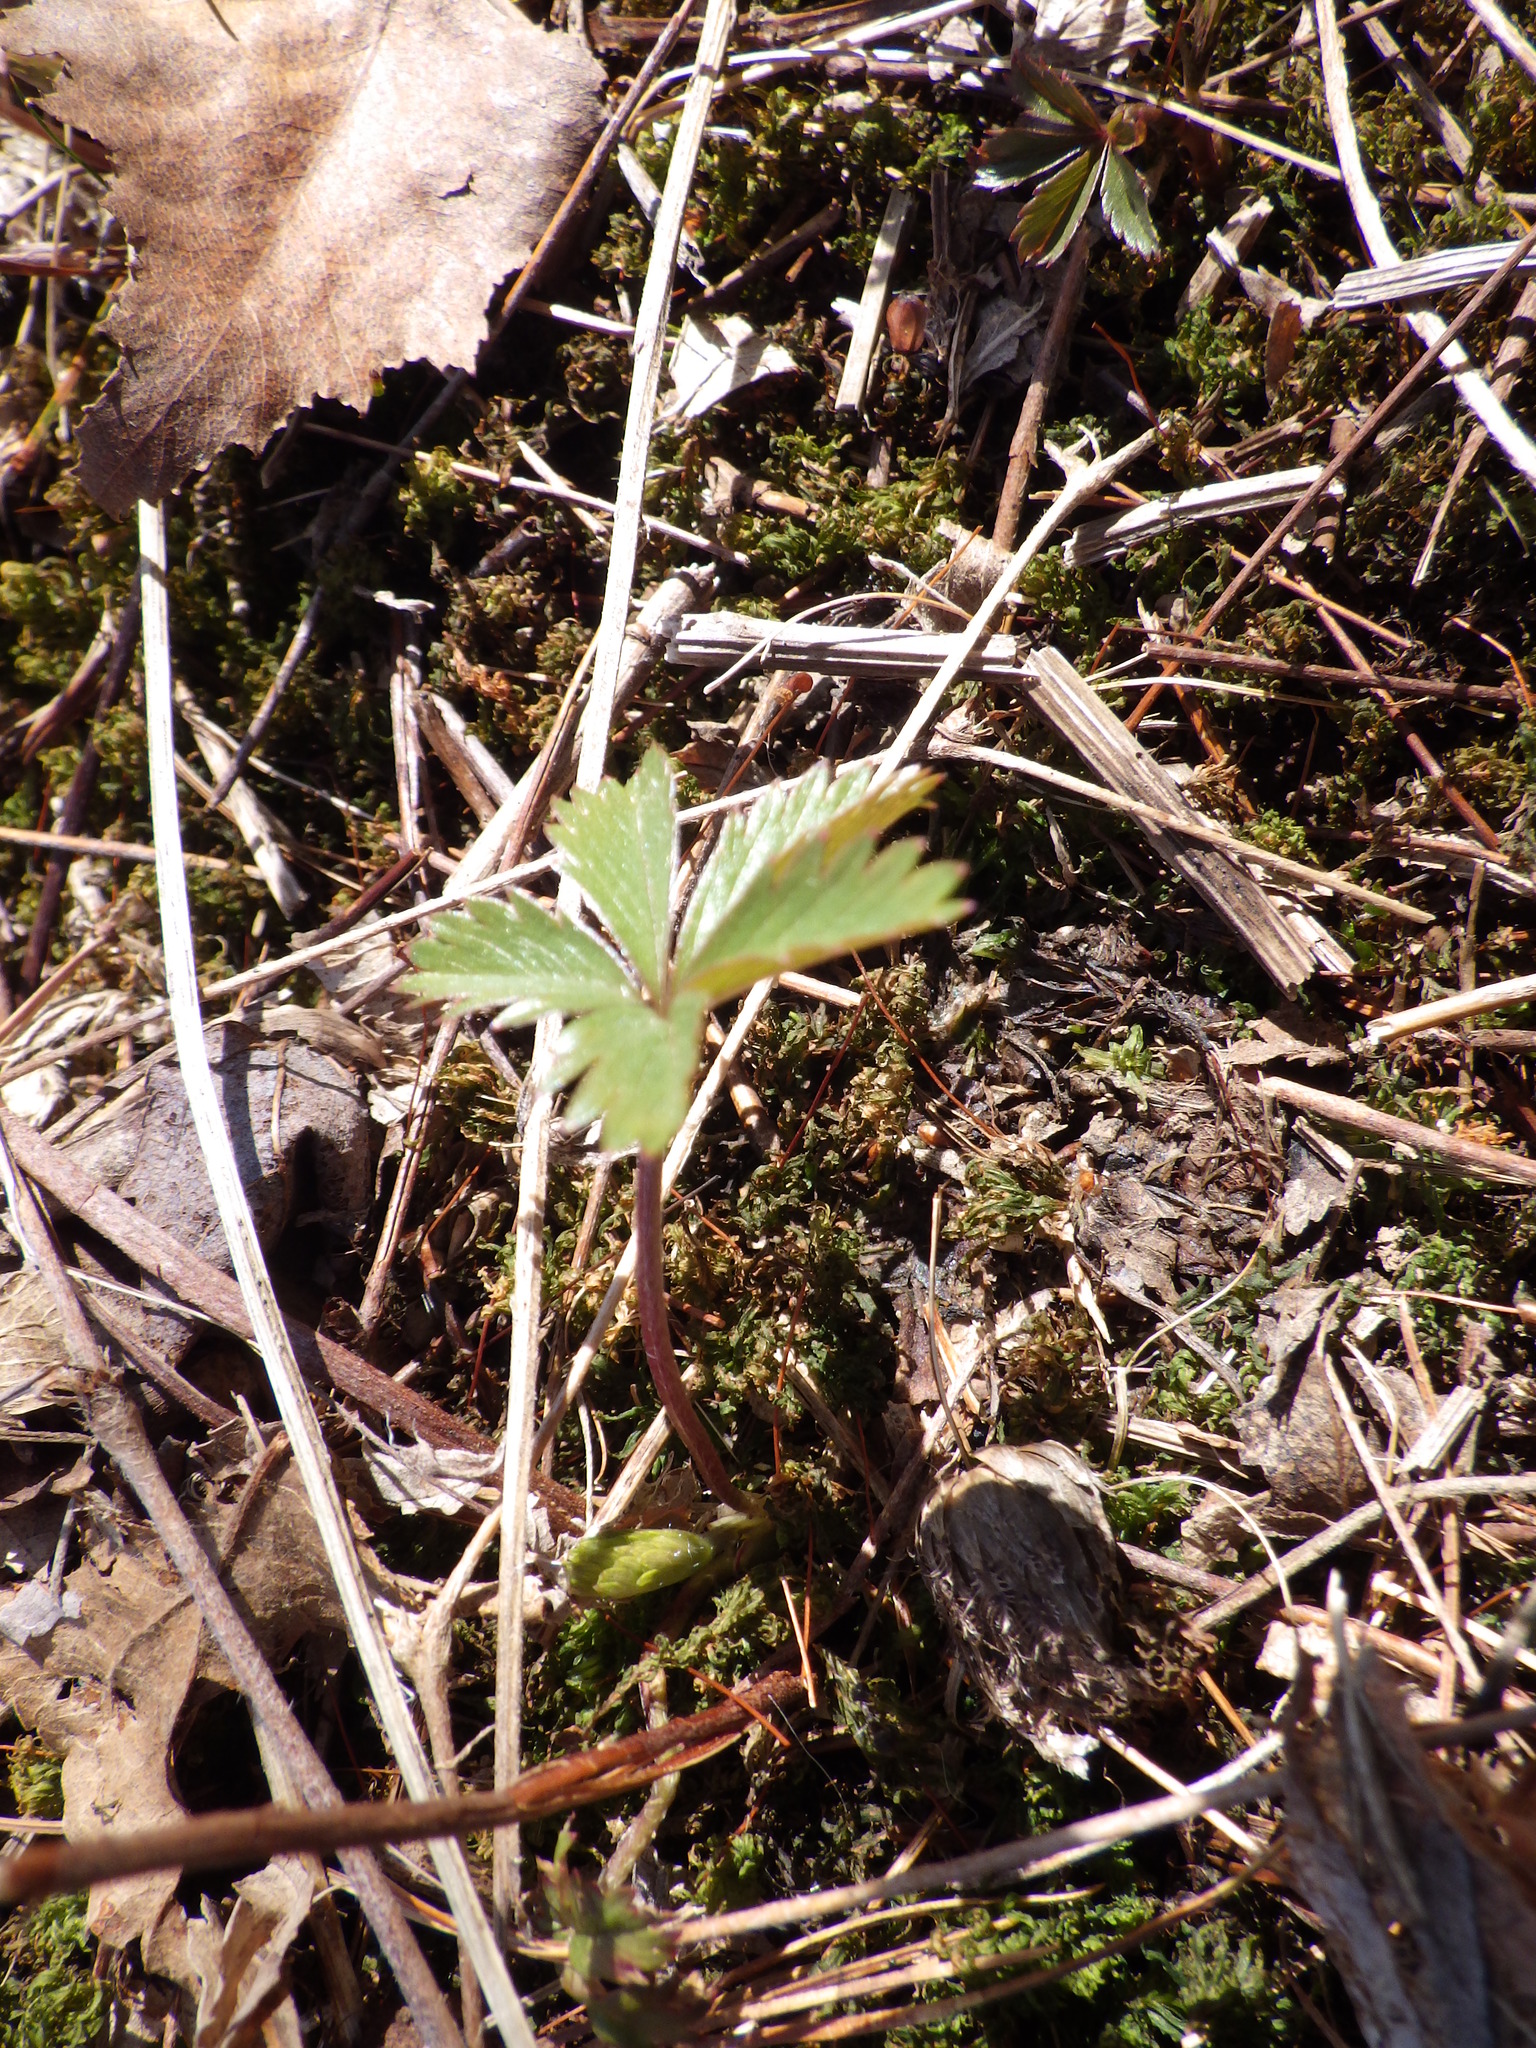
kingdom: Plantae
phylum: Tracheophyta
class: Magnoliopsida
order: Rosales
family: Rosaceae
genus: Potentilla
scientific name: Potentilla simplex
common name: Old field cinquefoil
